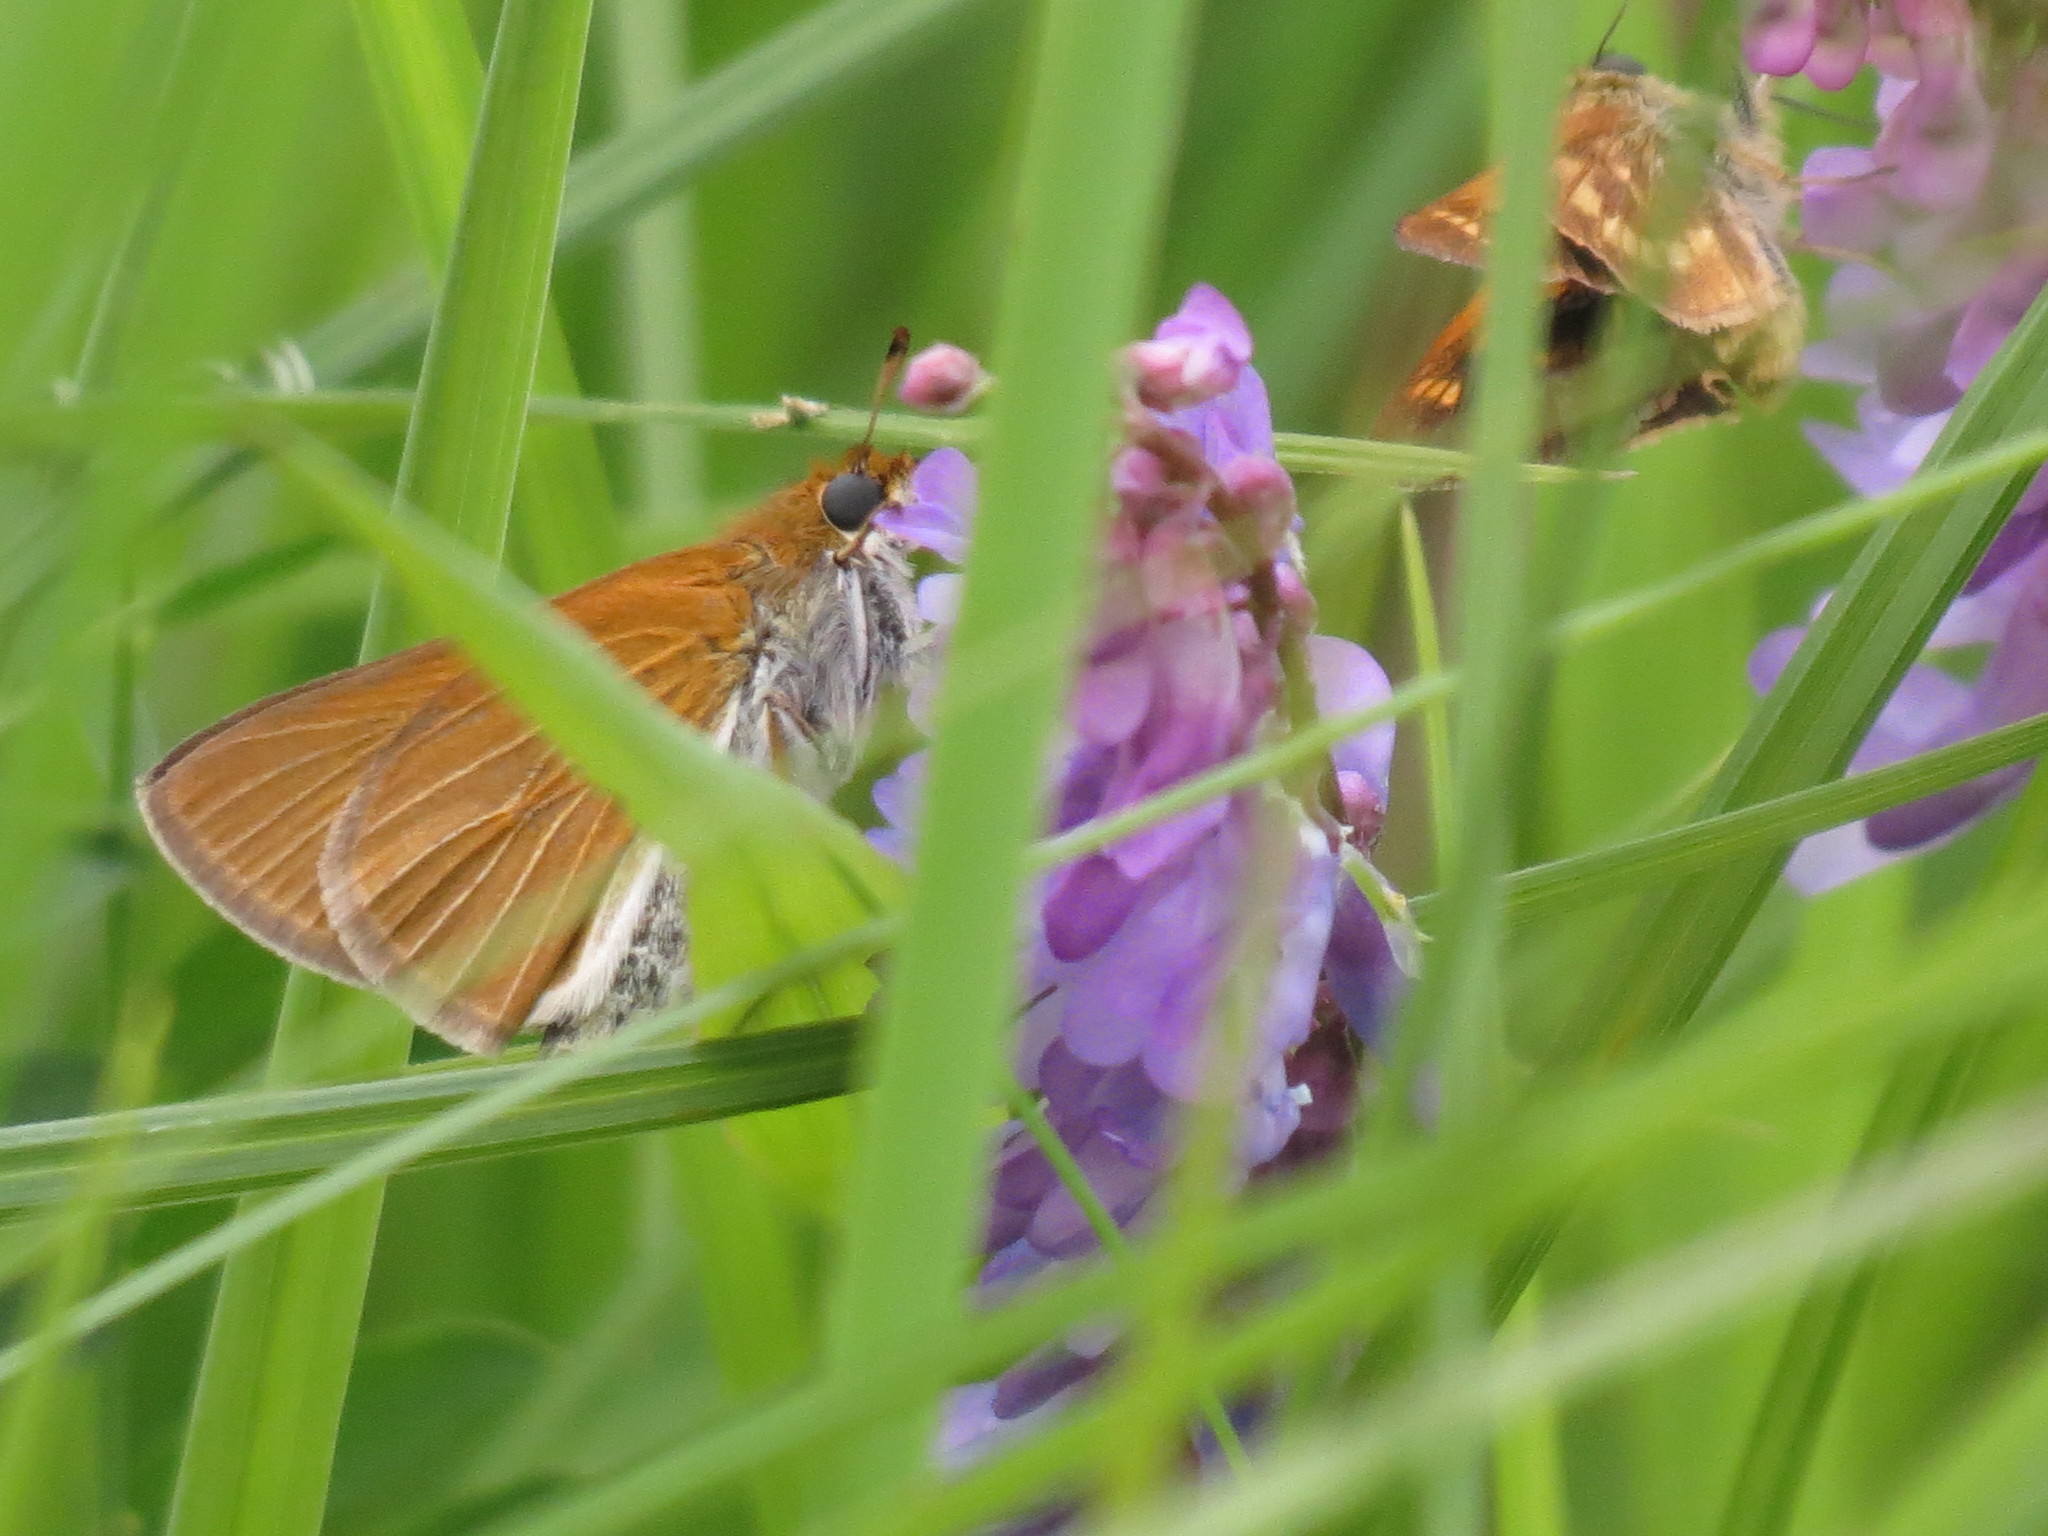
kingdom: Animalia
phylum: Arthropoda
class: Insecta
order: Lepidoptera
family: Hesperiidae
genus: Euphyes
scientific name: Euphyes bimacula
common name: Two-spotted skipper
